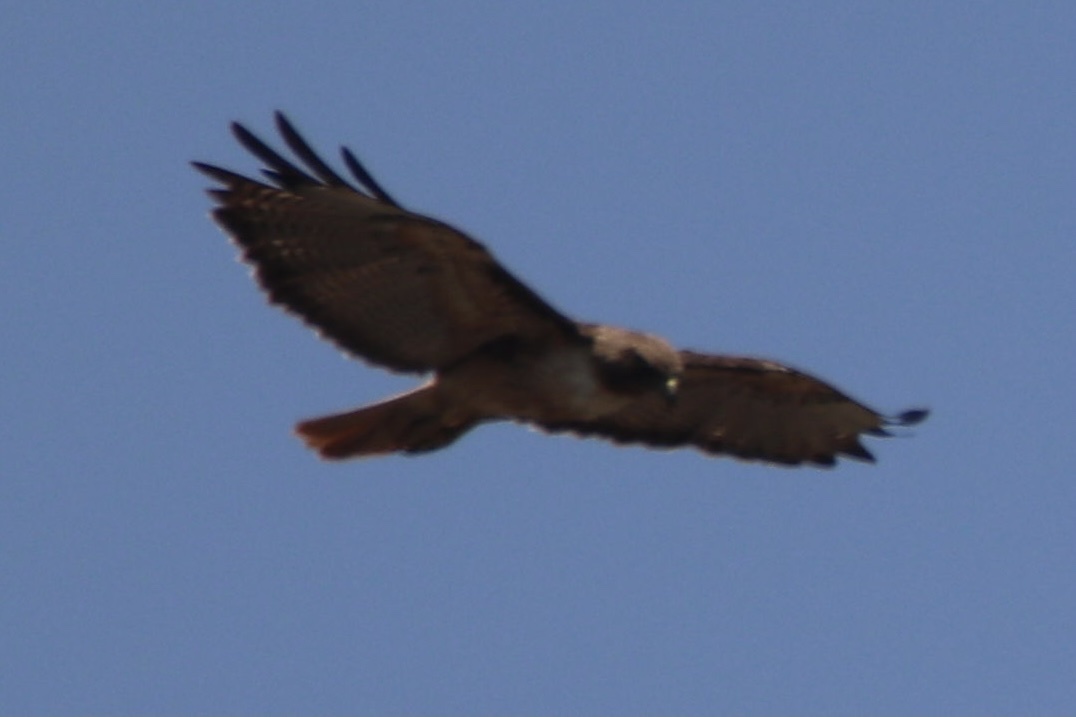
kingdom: Animalia
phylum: Chordata
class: Aves
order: Accipitriformes
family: Accipitridae
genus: Buteo
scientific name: Buteo jamaicensis
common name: Red-tailed hawk
